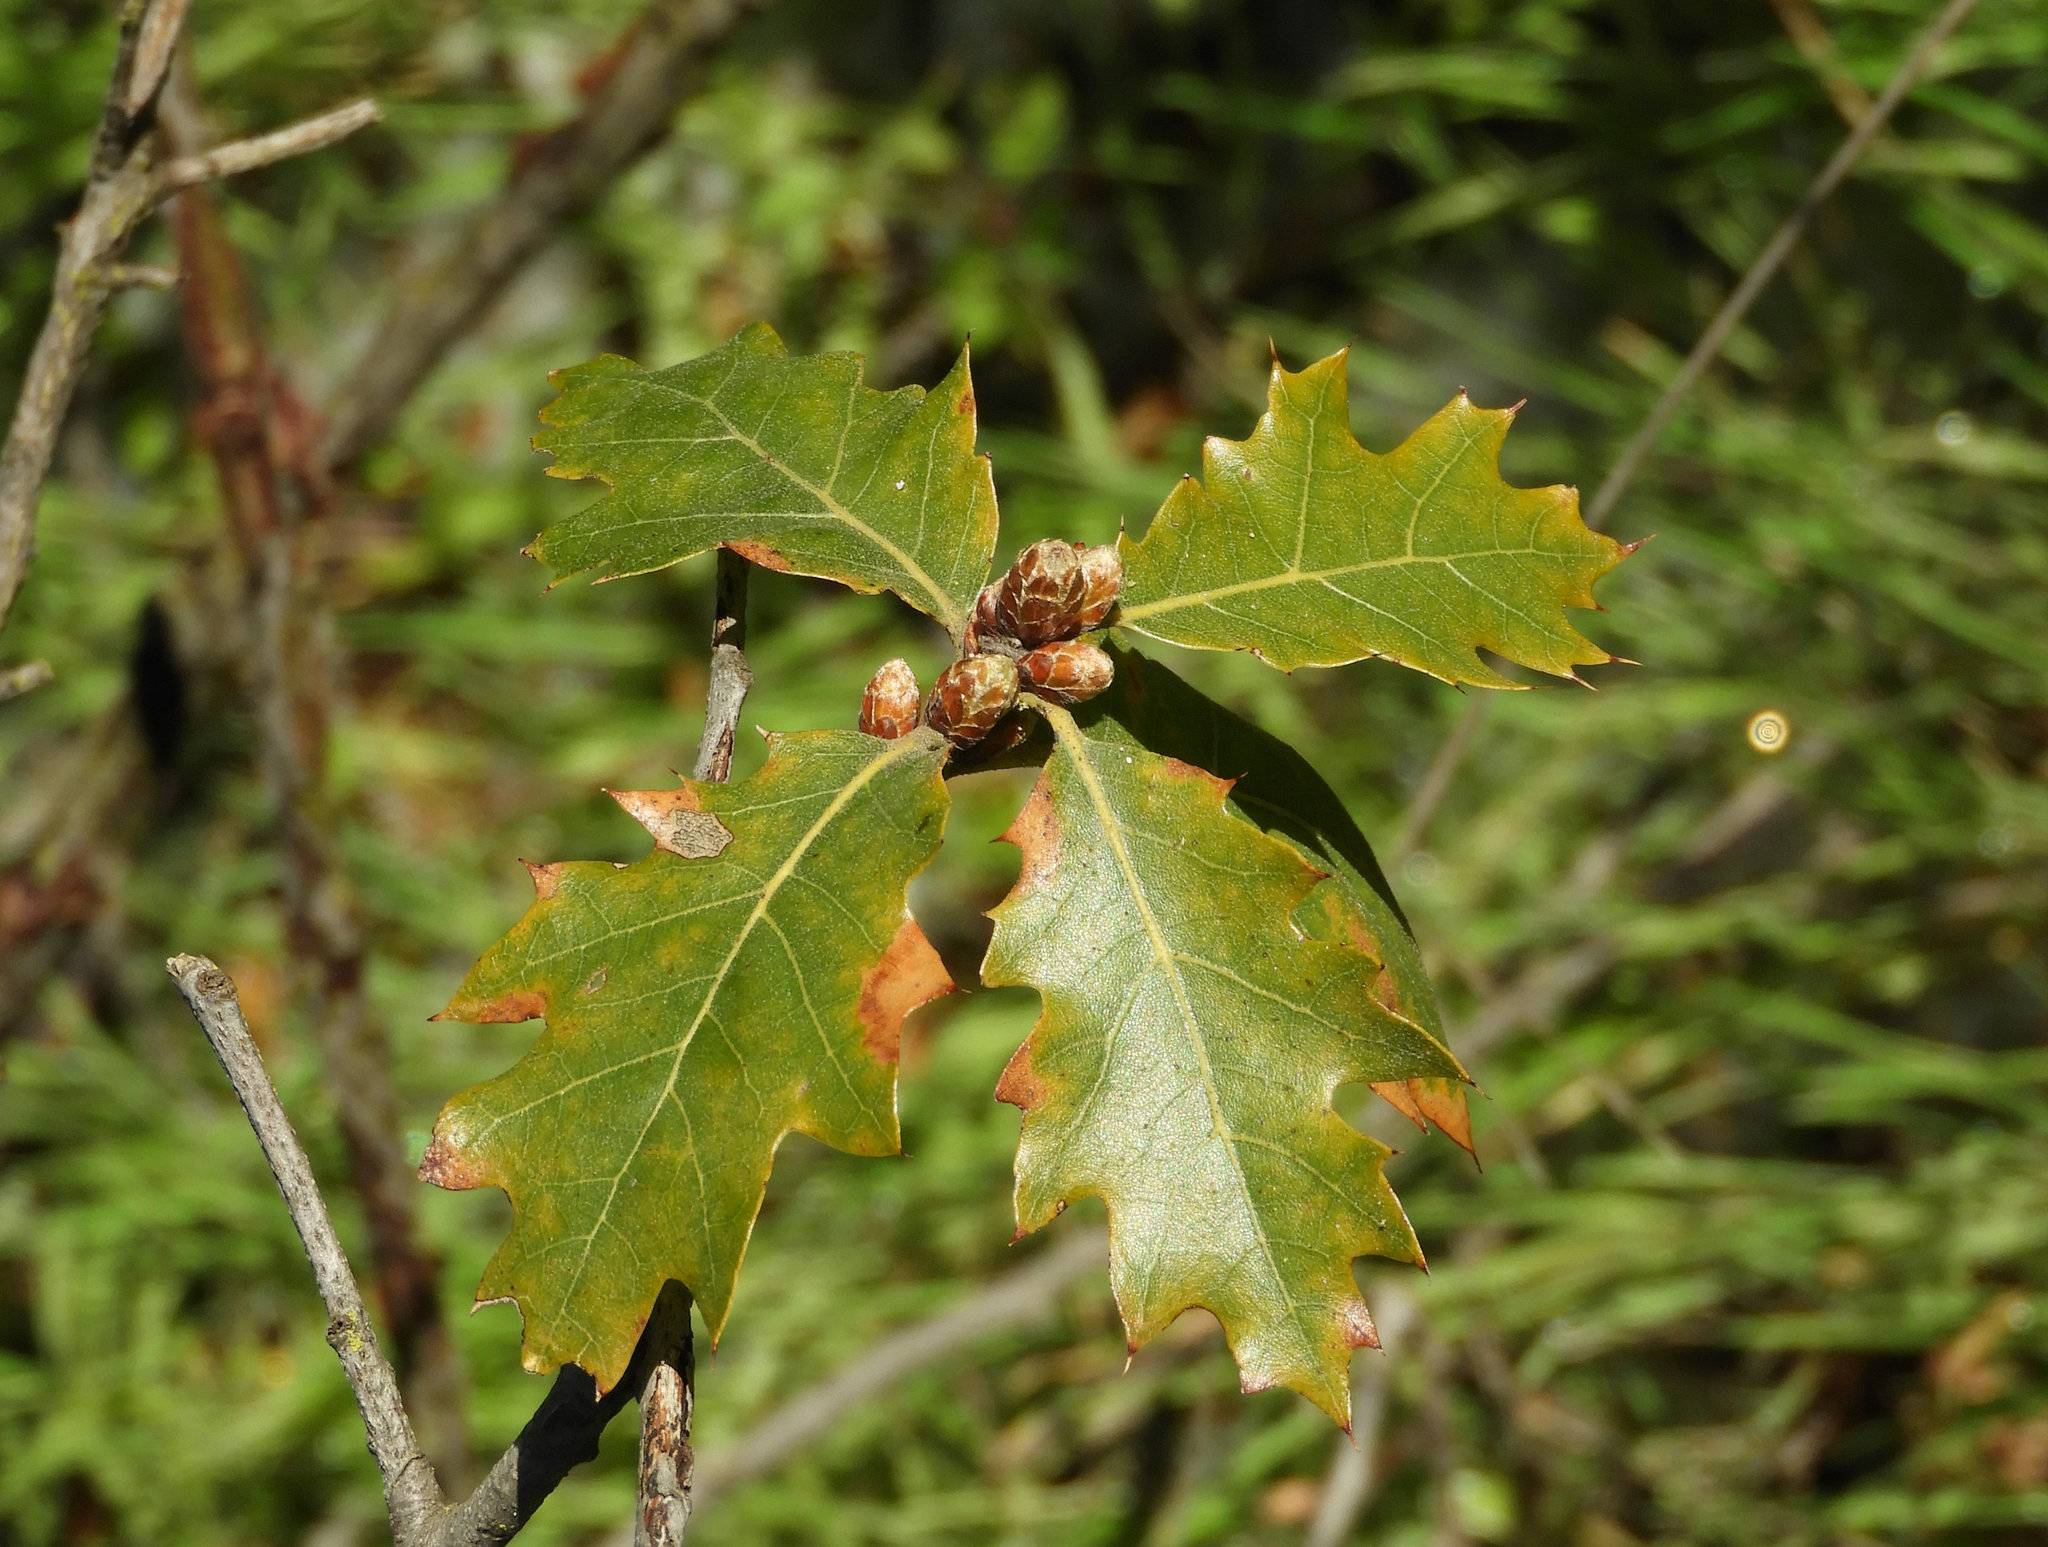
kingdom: Plantae
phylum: Tracheophyta
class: Magnoliopsida
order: Fagales
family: Fagaceae
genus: Quercus
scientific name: Quercus kelloggii
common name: California black oak
